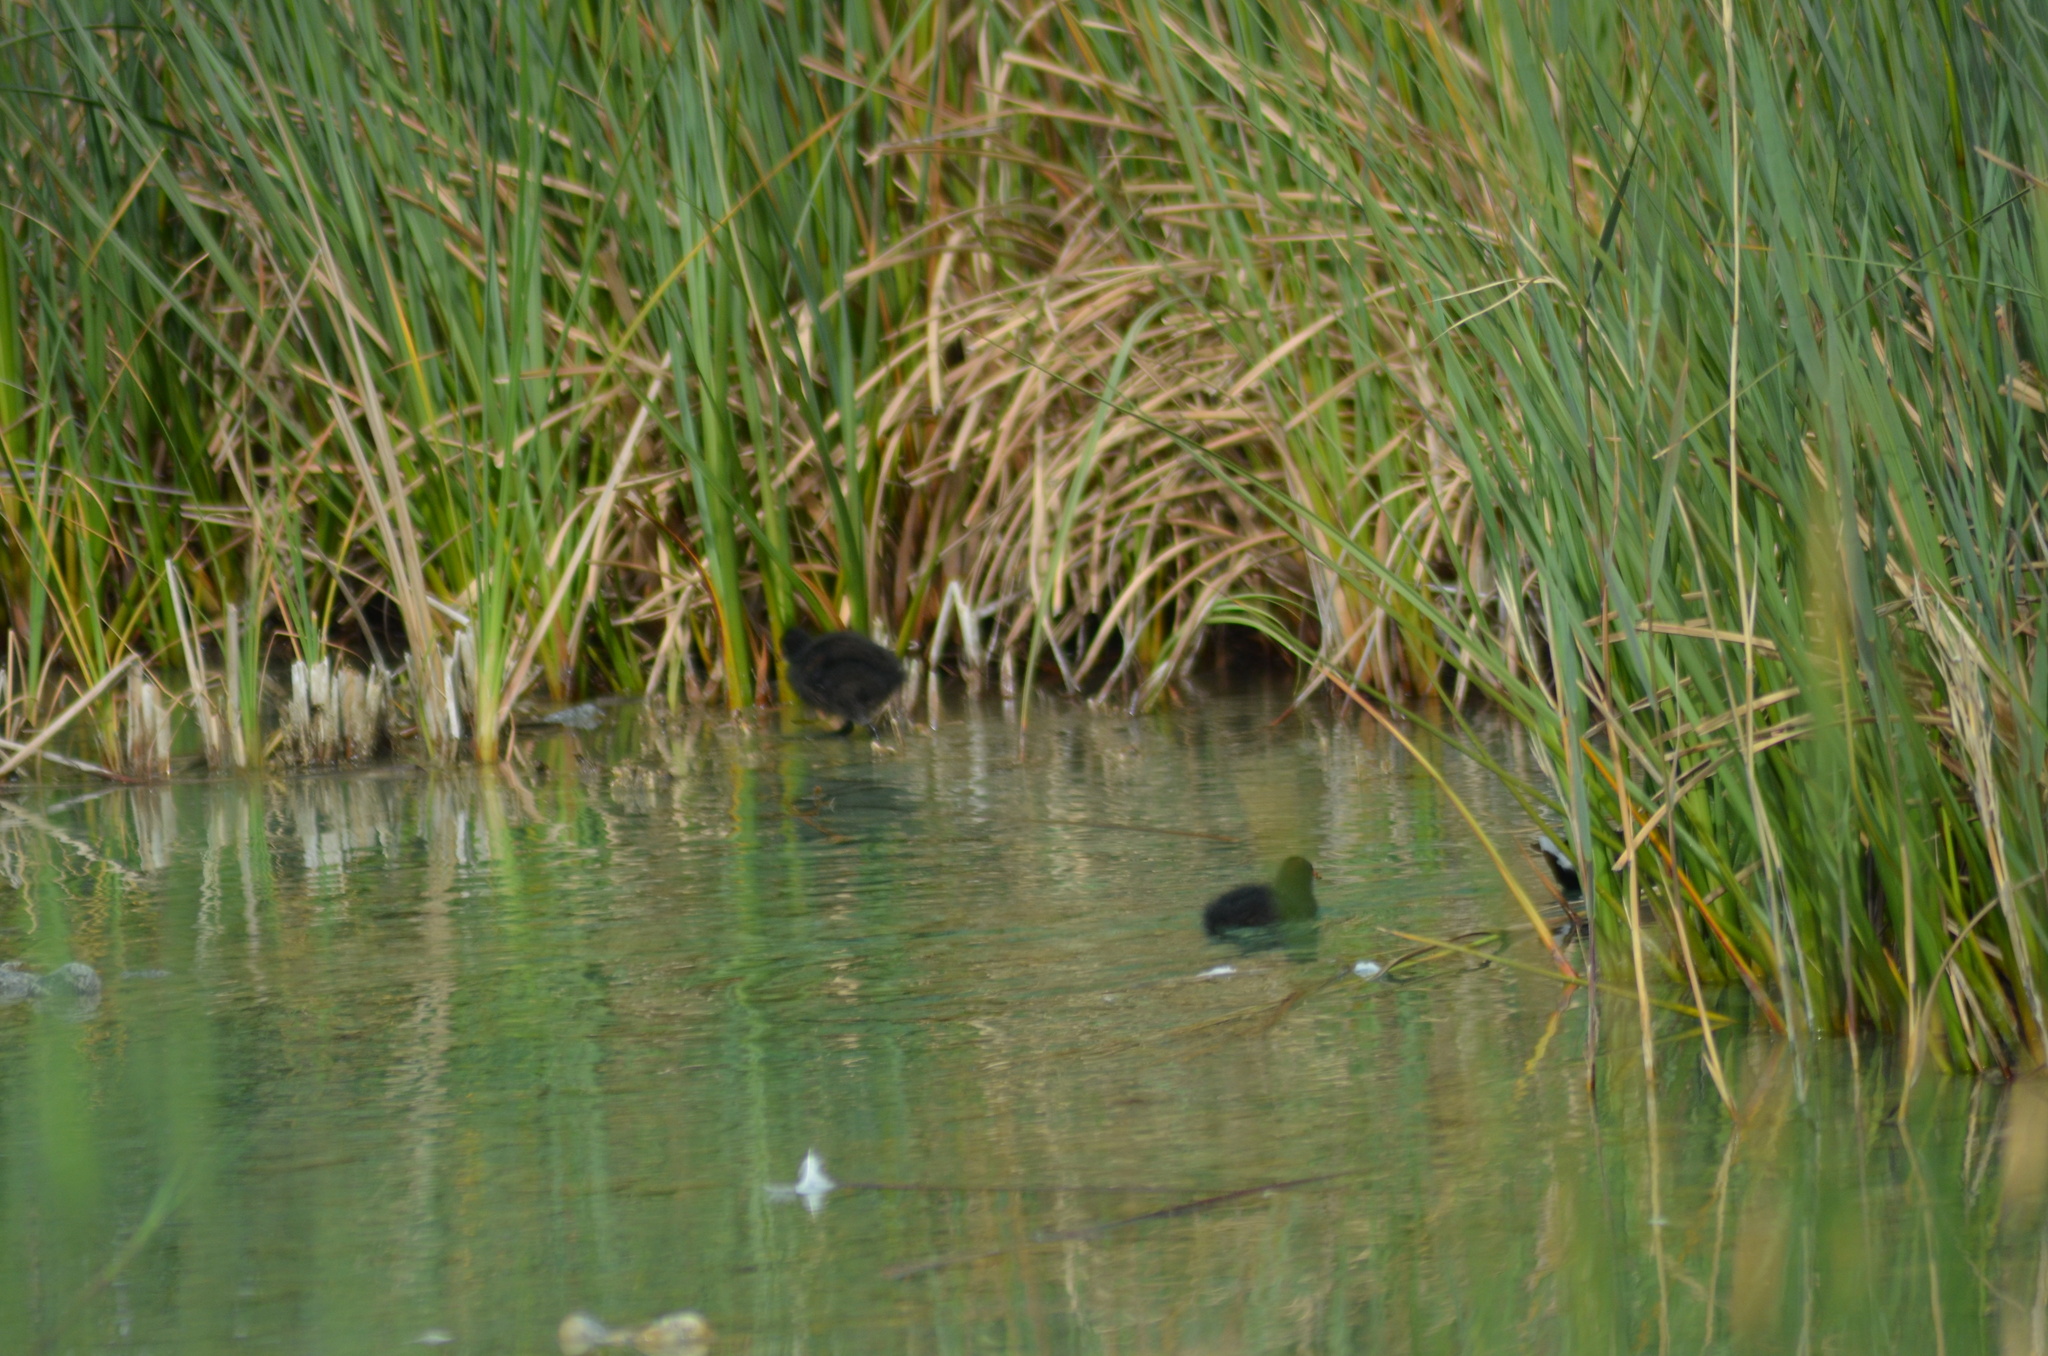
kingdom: Animalia
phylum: Chordata
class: Aves
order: Gruiformes
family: Rallidae
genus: Gallinula
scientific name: Gallinula chloropus
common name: Common moorhen
